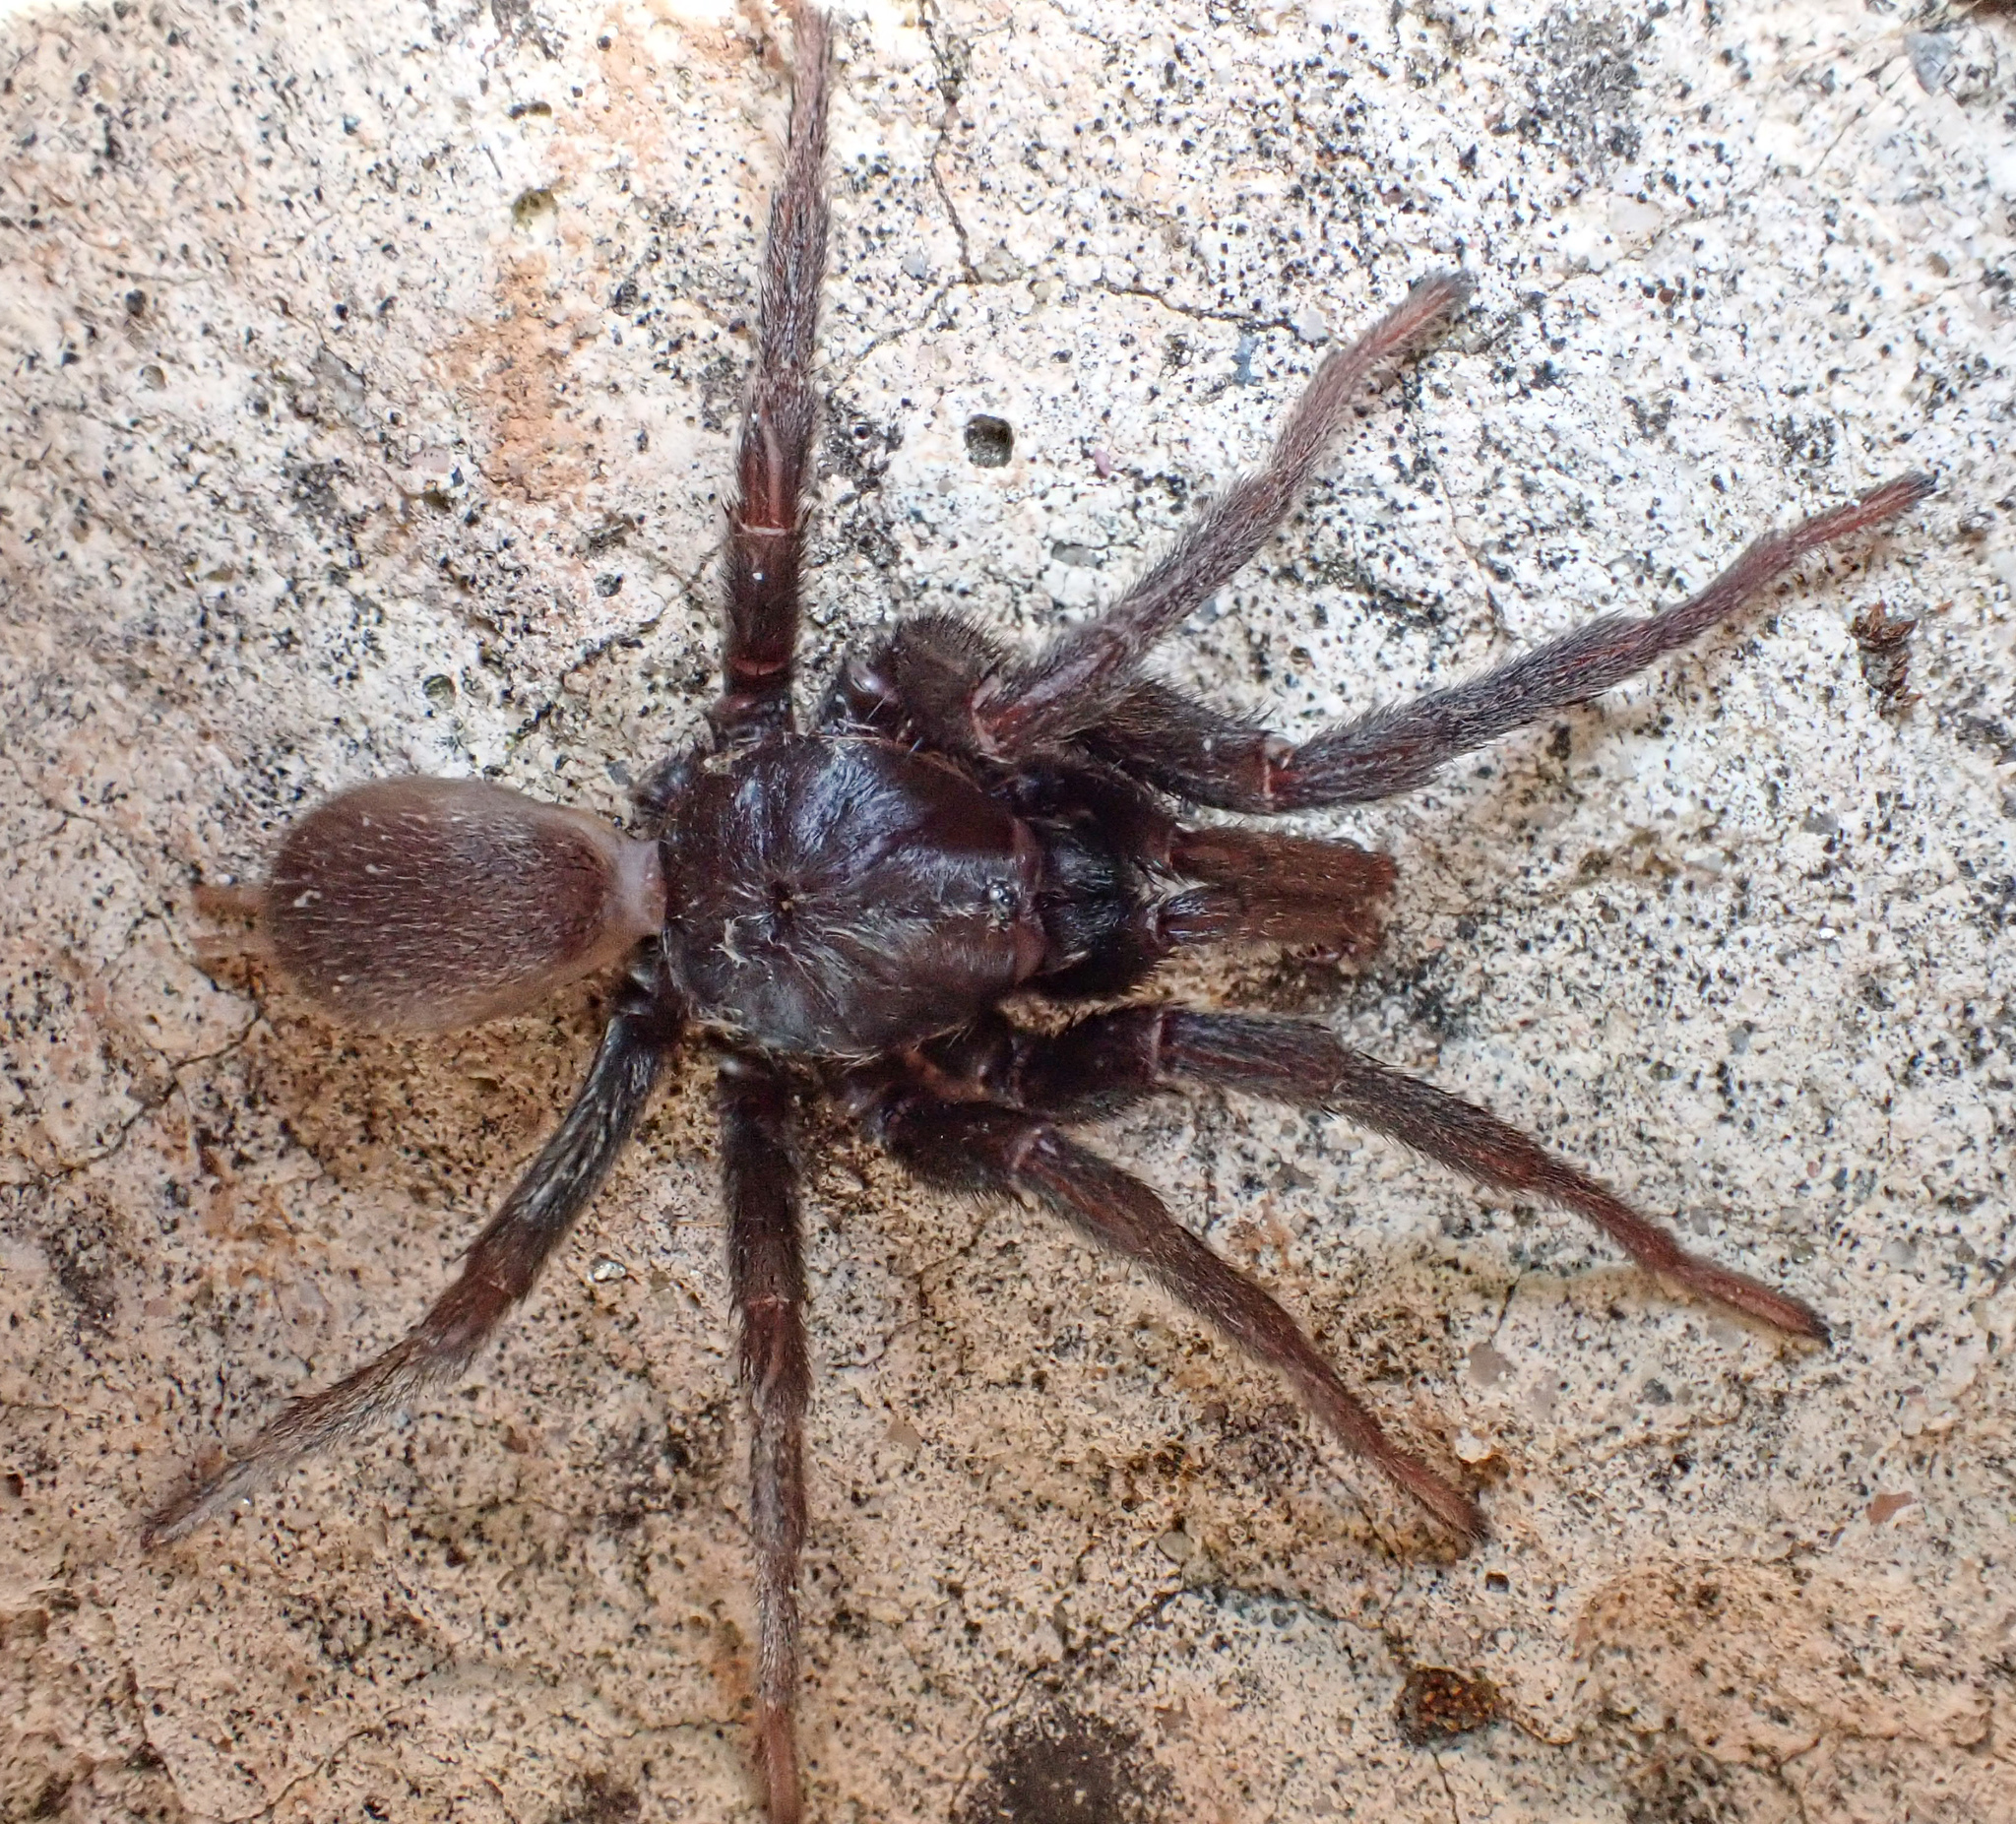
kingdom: Animalia
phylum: Arthropoda
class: Arachnida
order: Araneae
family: Nemesiidae
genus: Calisoga
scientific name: Calisoga longitarsis
